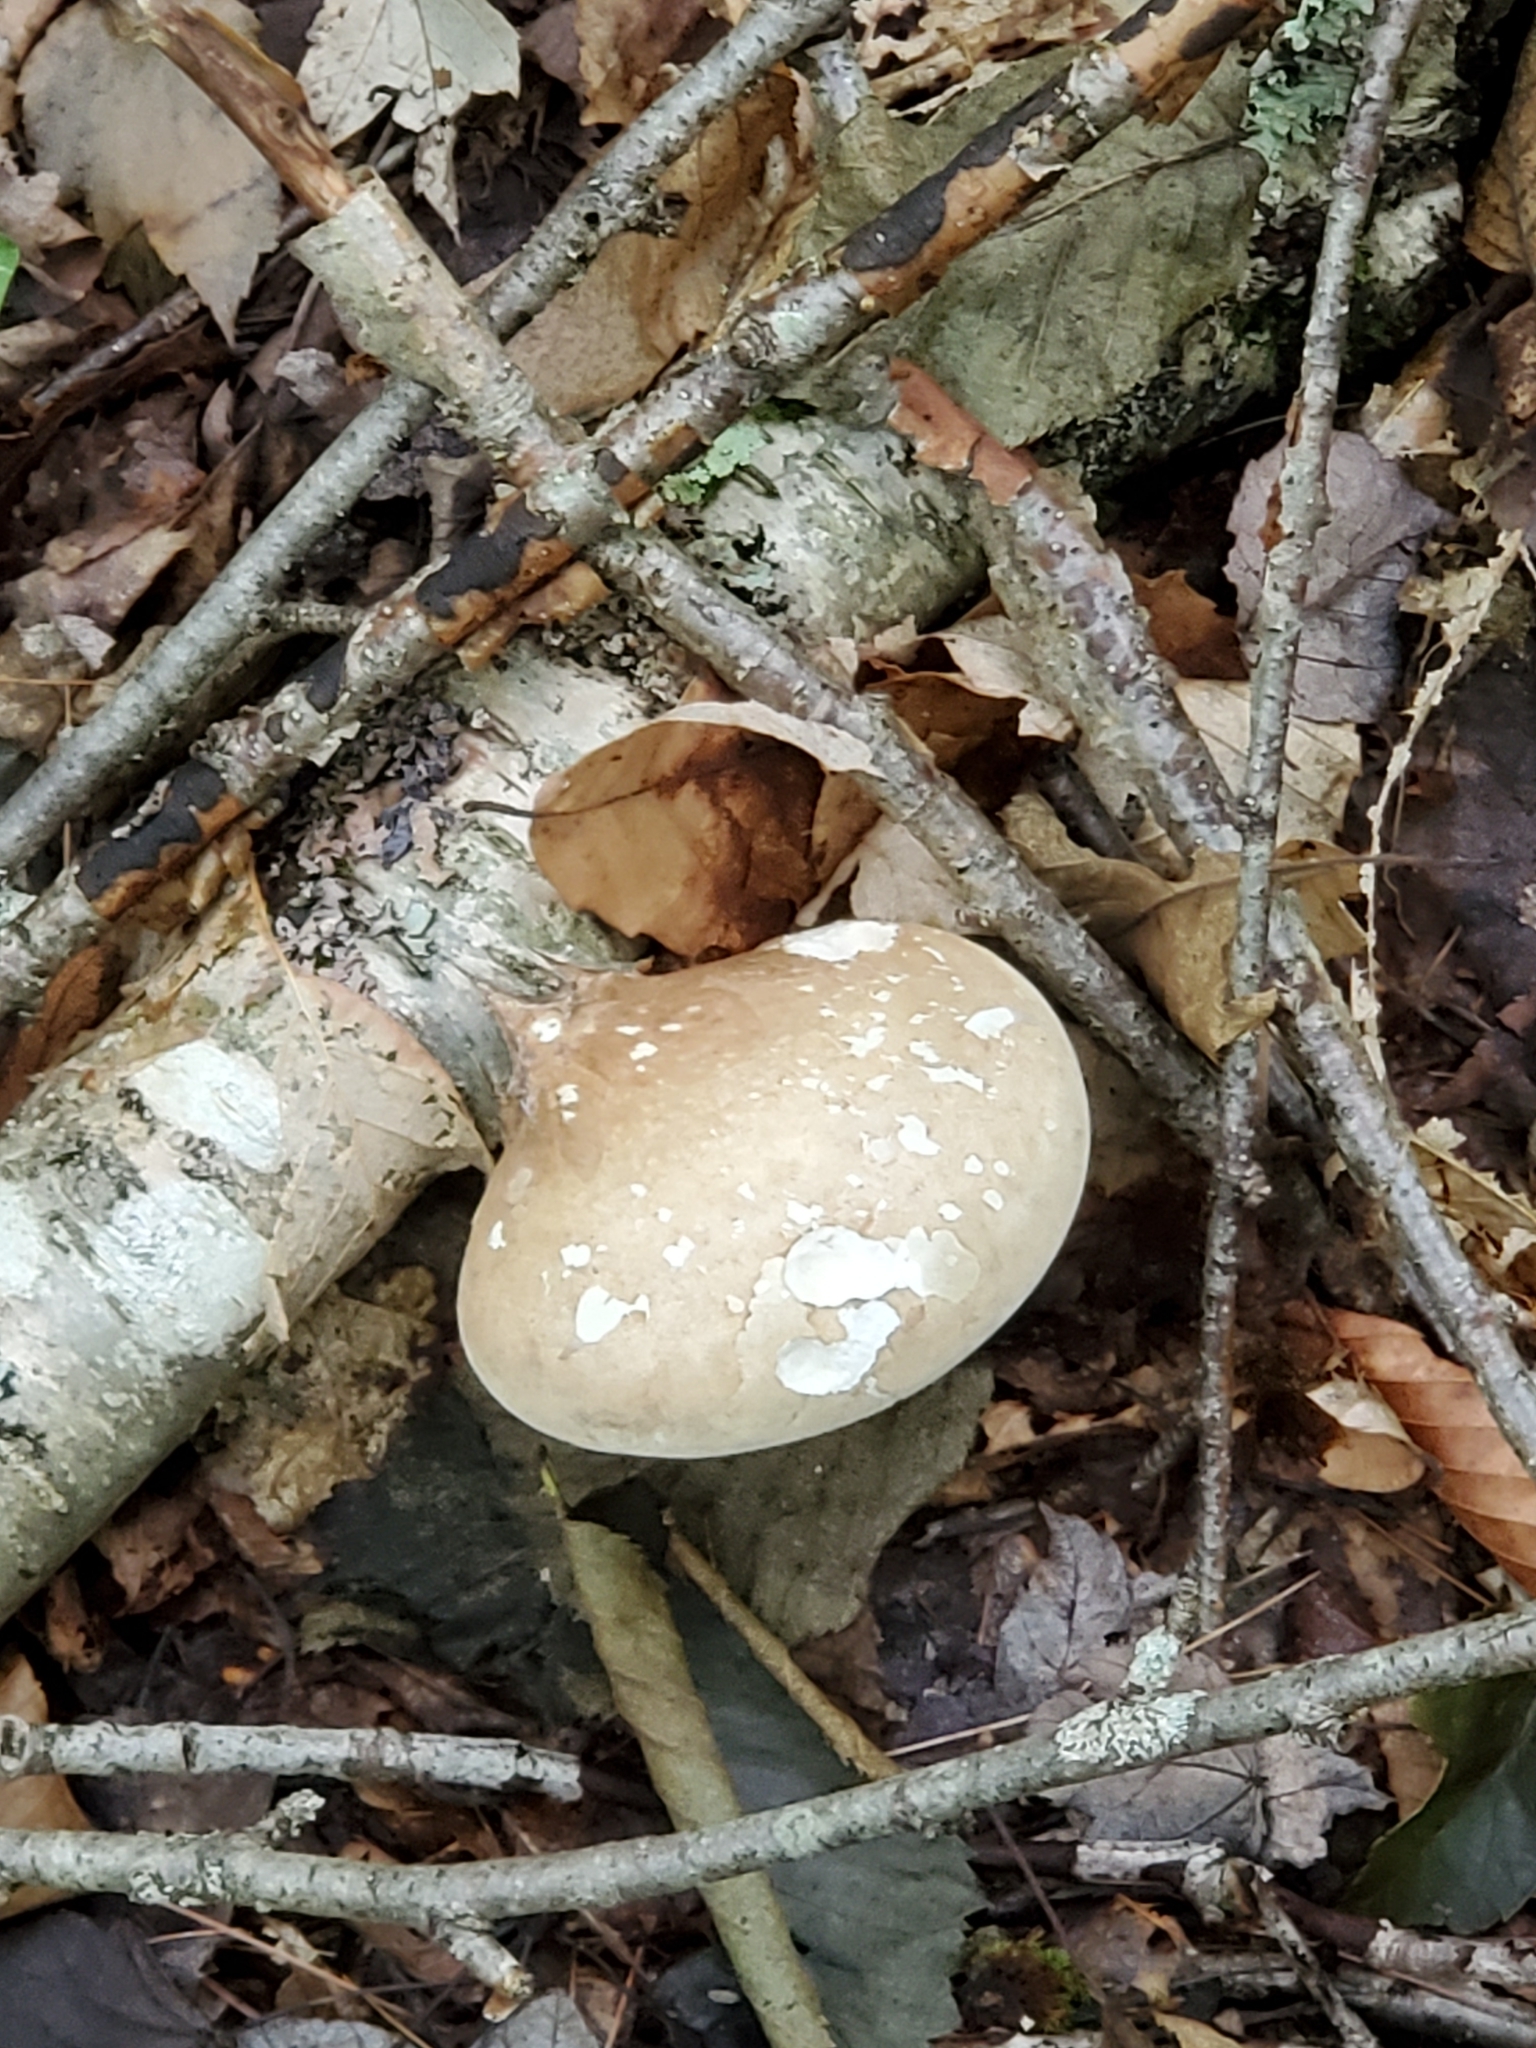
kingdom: Fungi
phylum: Basidiomycota
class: Agaricomycetes
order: Polyporales
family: Fomitopsidaceae
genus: Fomitopsis
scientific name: Fomitopsis betulina
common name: Birch polypore
